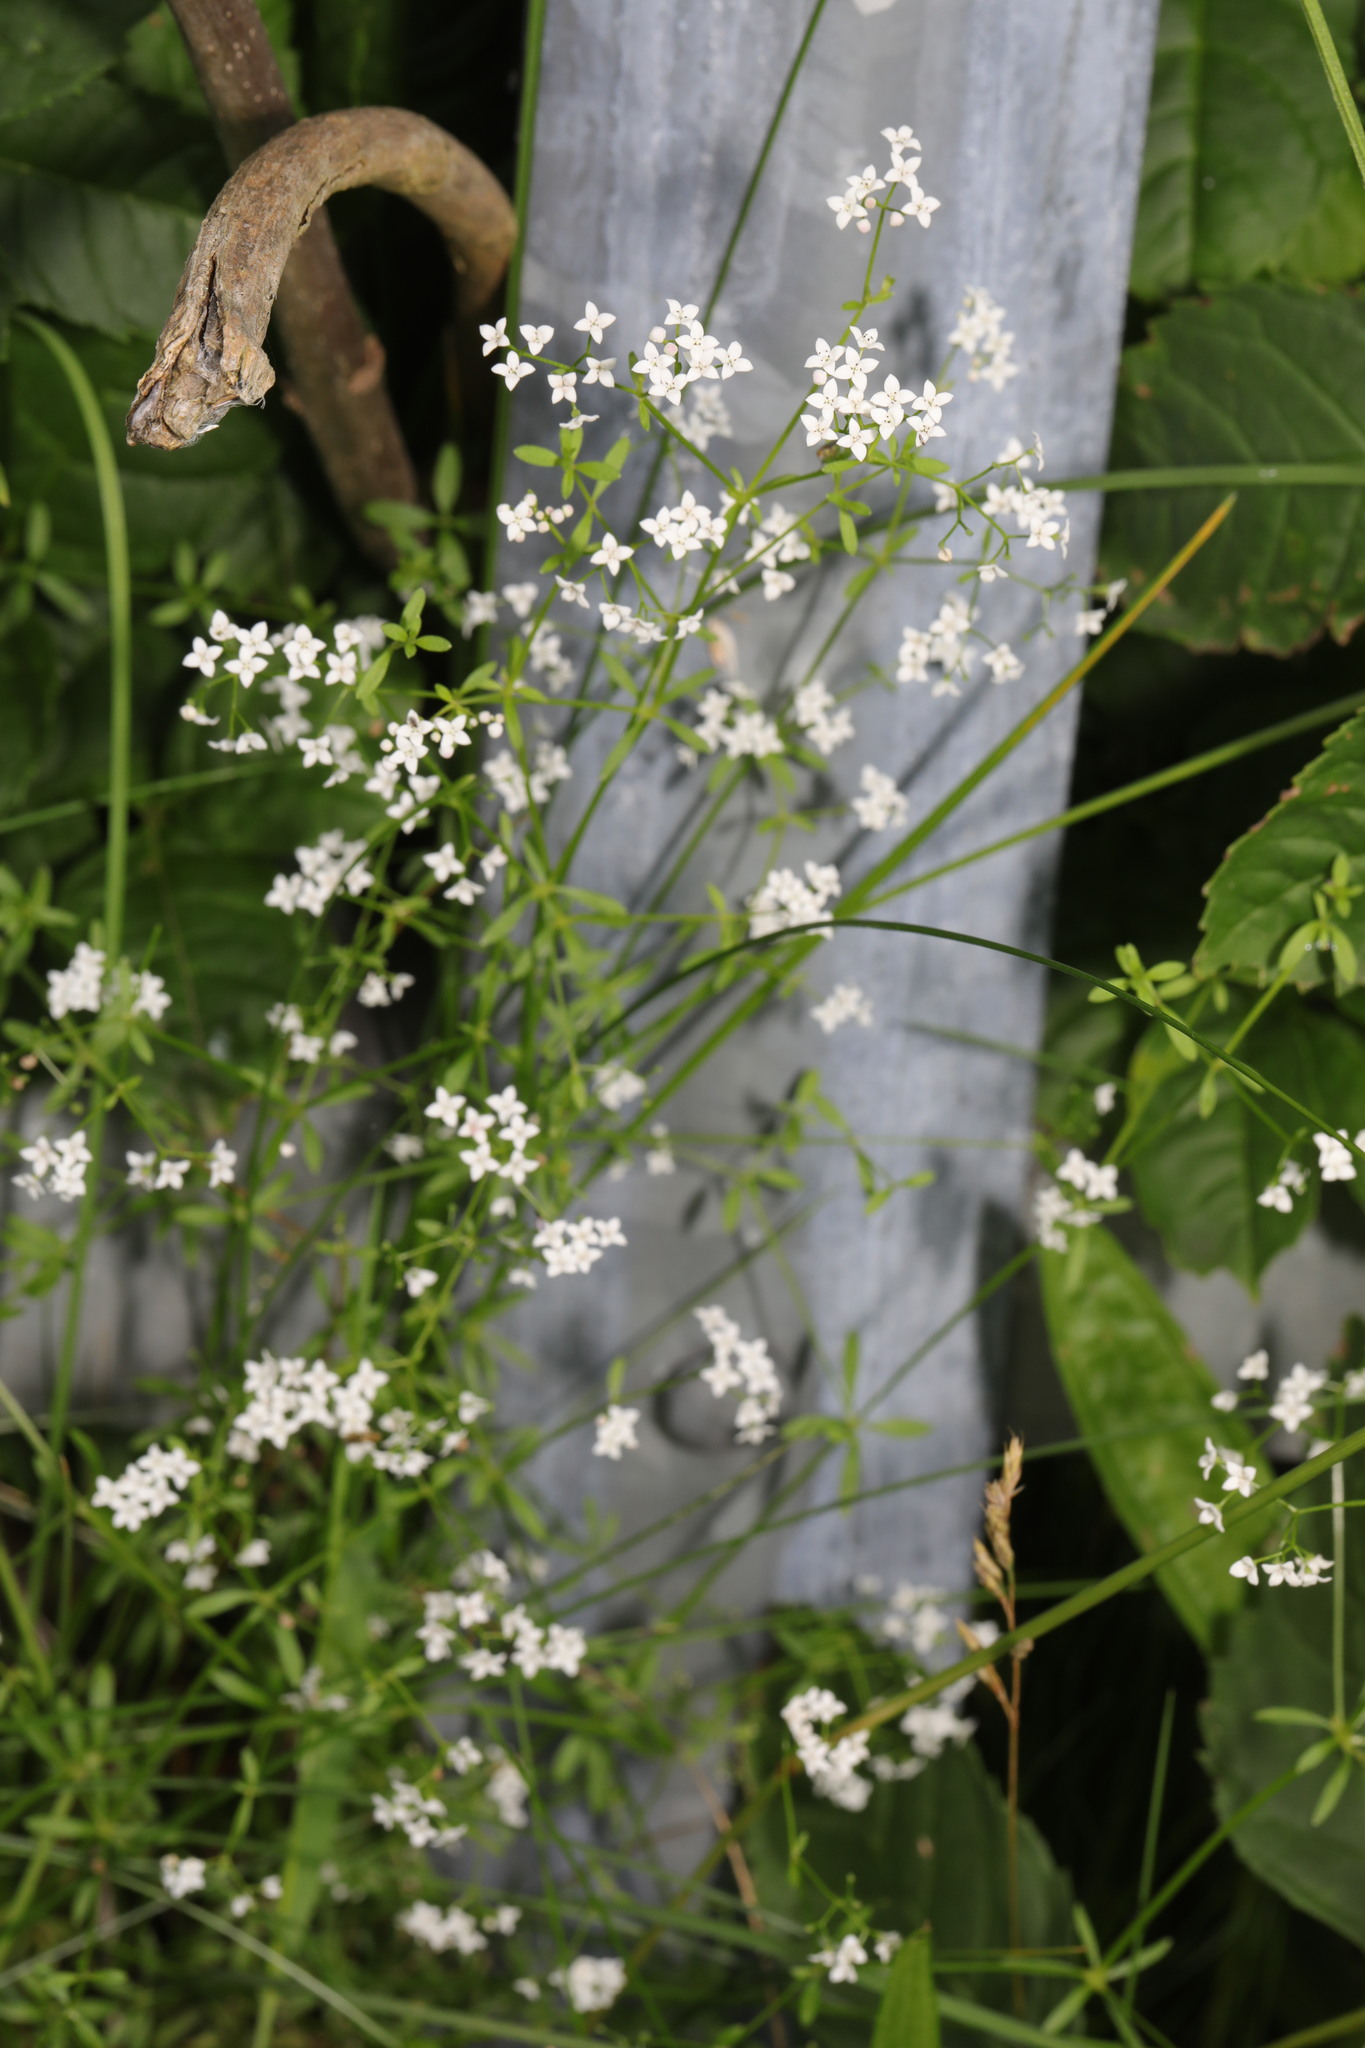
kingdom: Plantae
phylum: Tracheophyta
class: Magnoliopsida
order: Gentianales
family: Rubiaceae
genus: Galium
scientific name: Galium palustre
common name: Common marsh-bedstraw
